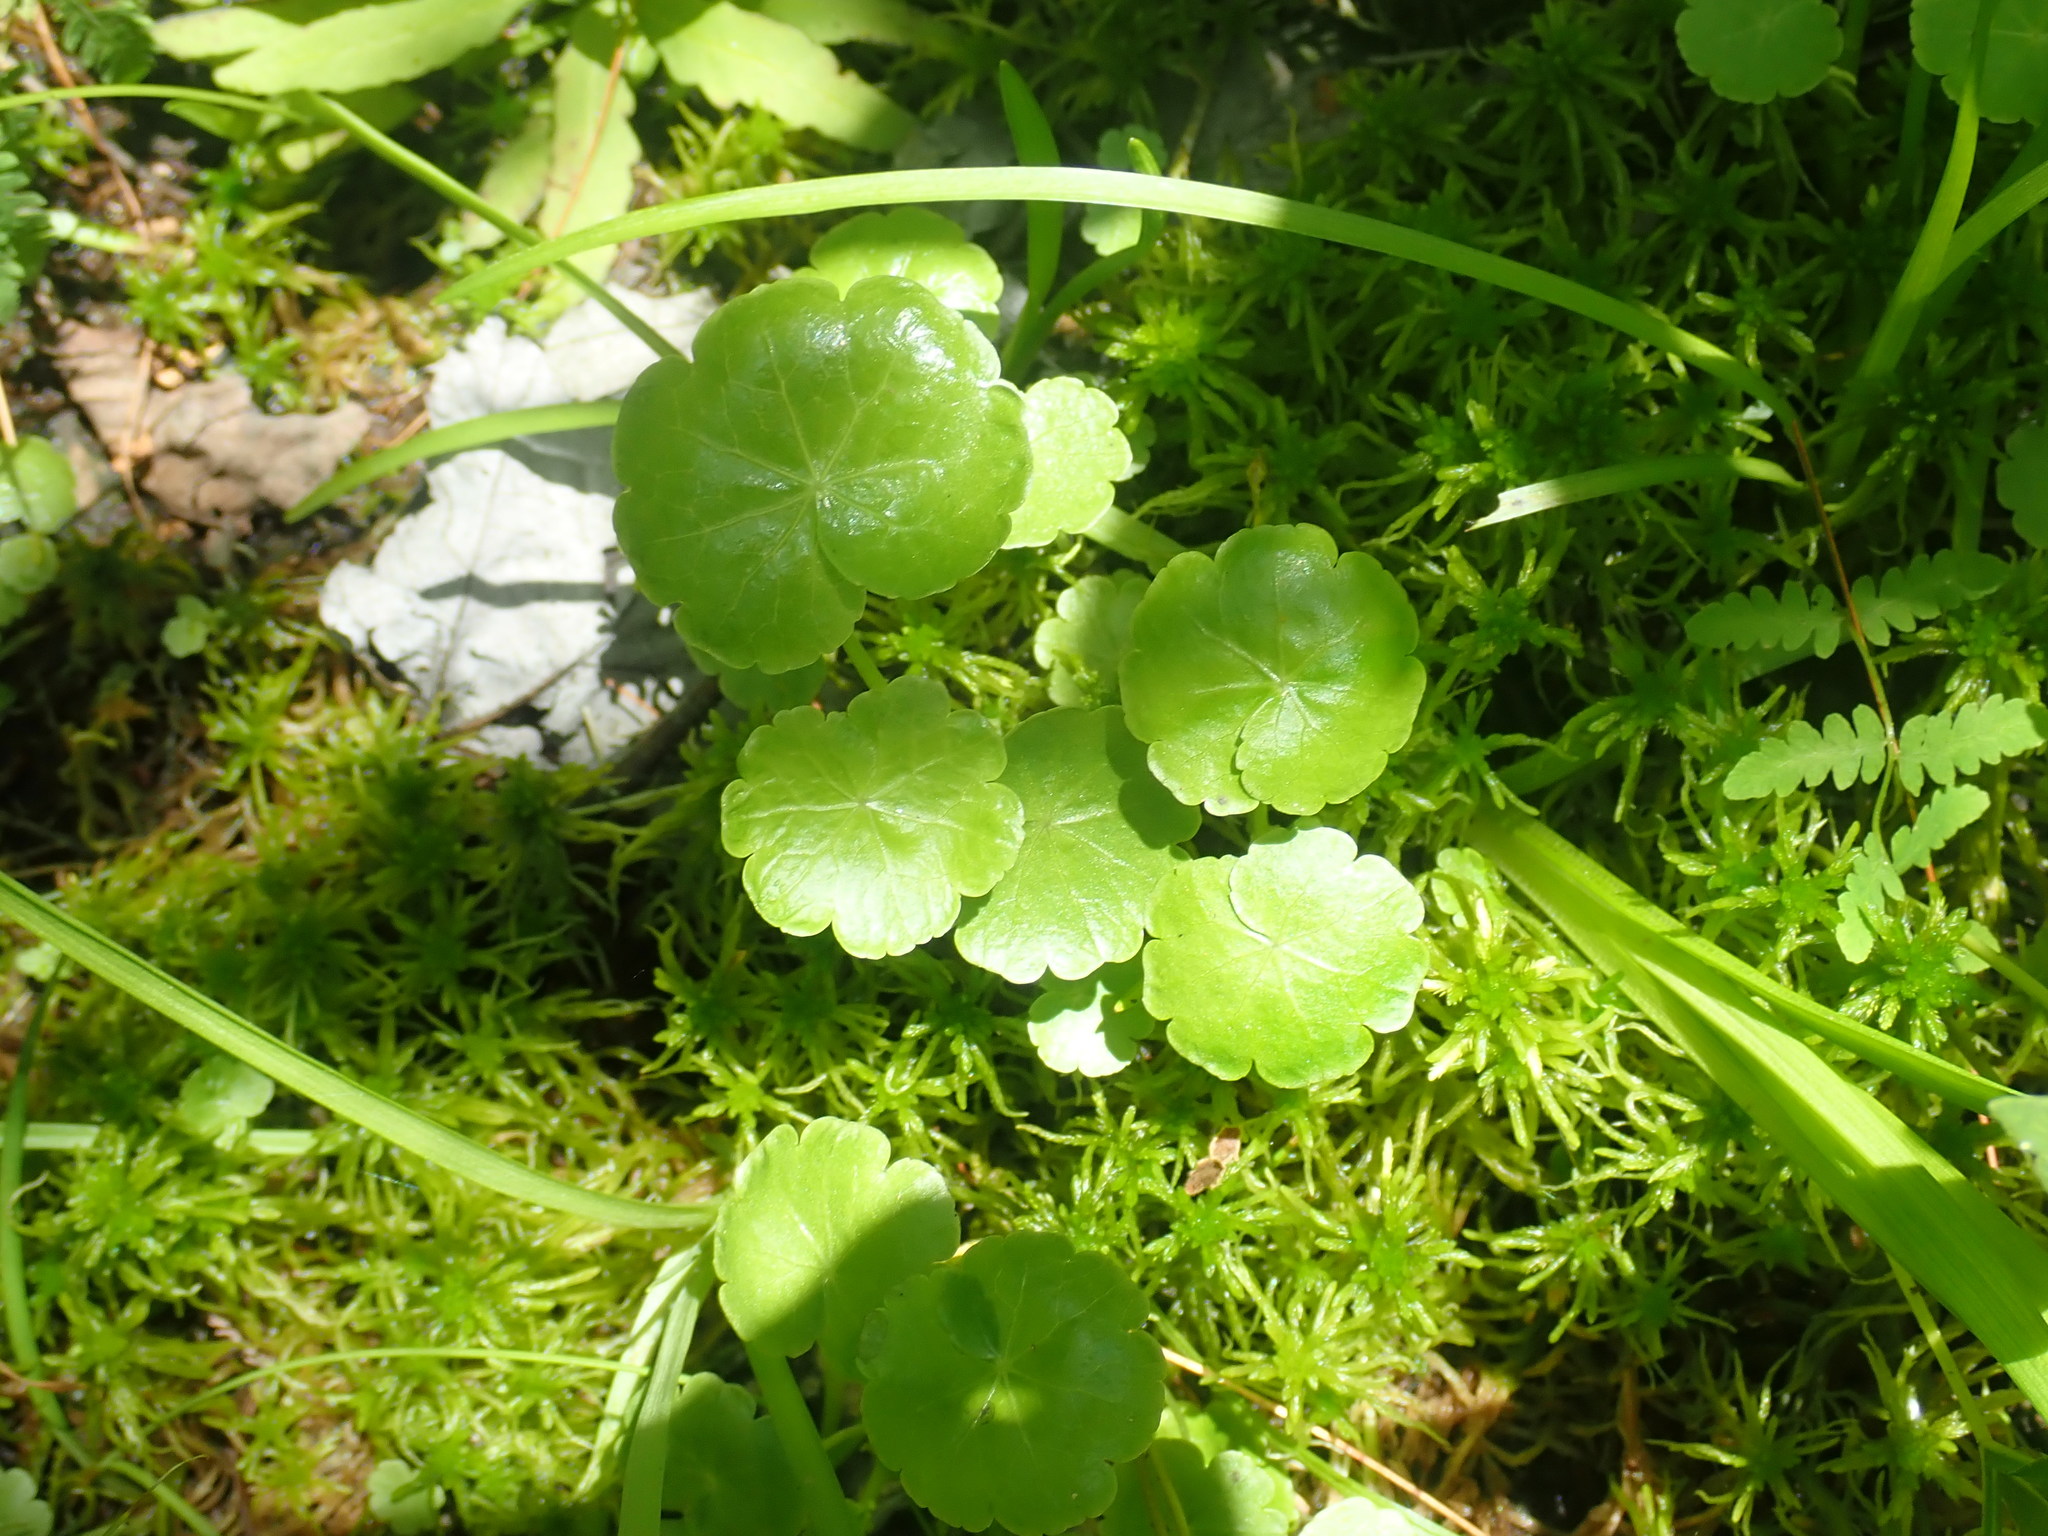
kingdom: Plantae
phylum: Tracheophyta
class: Magnoliopsida
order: Apiales
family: Araliaceae
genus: Hydrocotyle
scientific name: Hydrocotyle americana
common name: American water-pennywort
